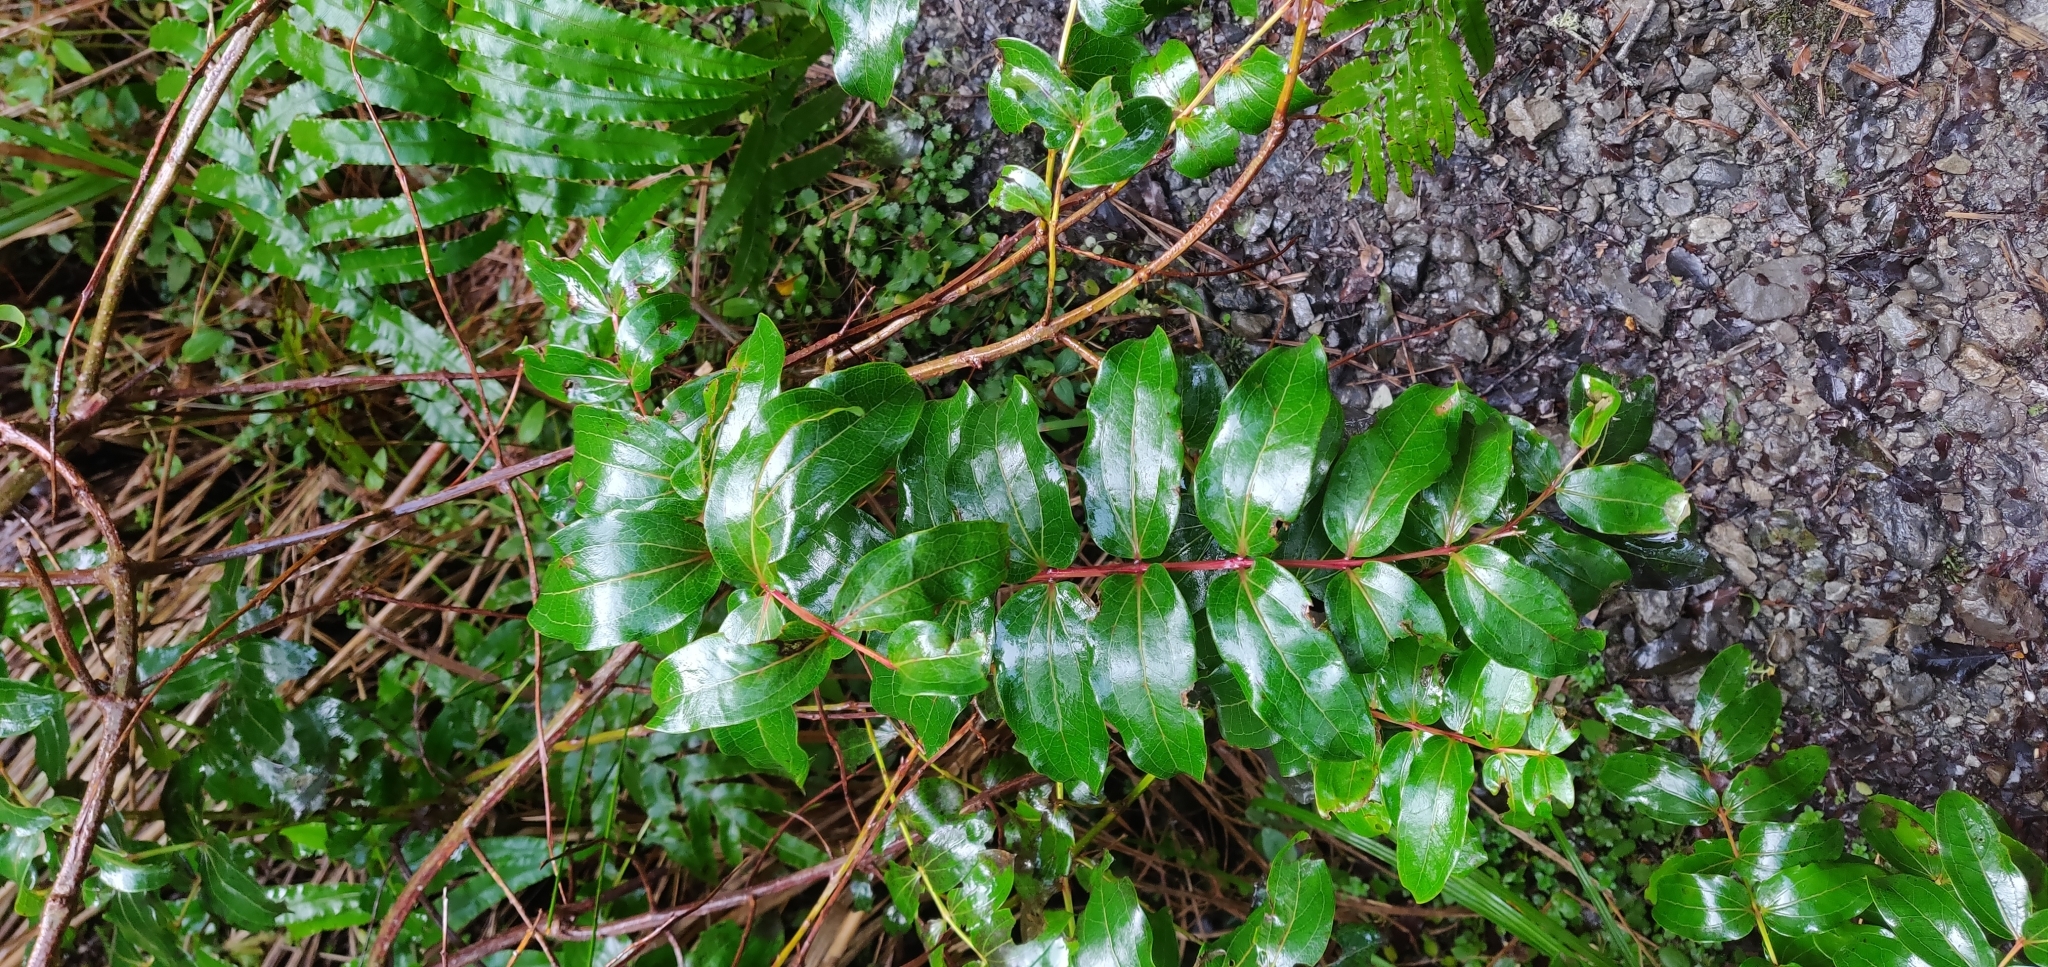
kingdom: Plantae
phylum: Tracheophyta
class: Magnoliopsida
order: Cucurbitales
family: Coriariaceae
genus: Coriaria
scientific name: Coriaria arborea
